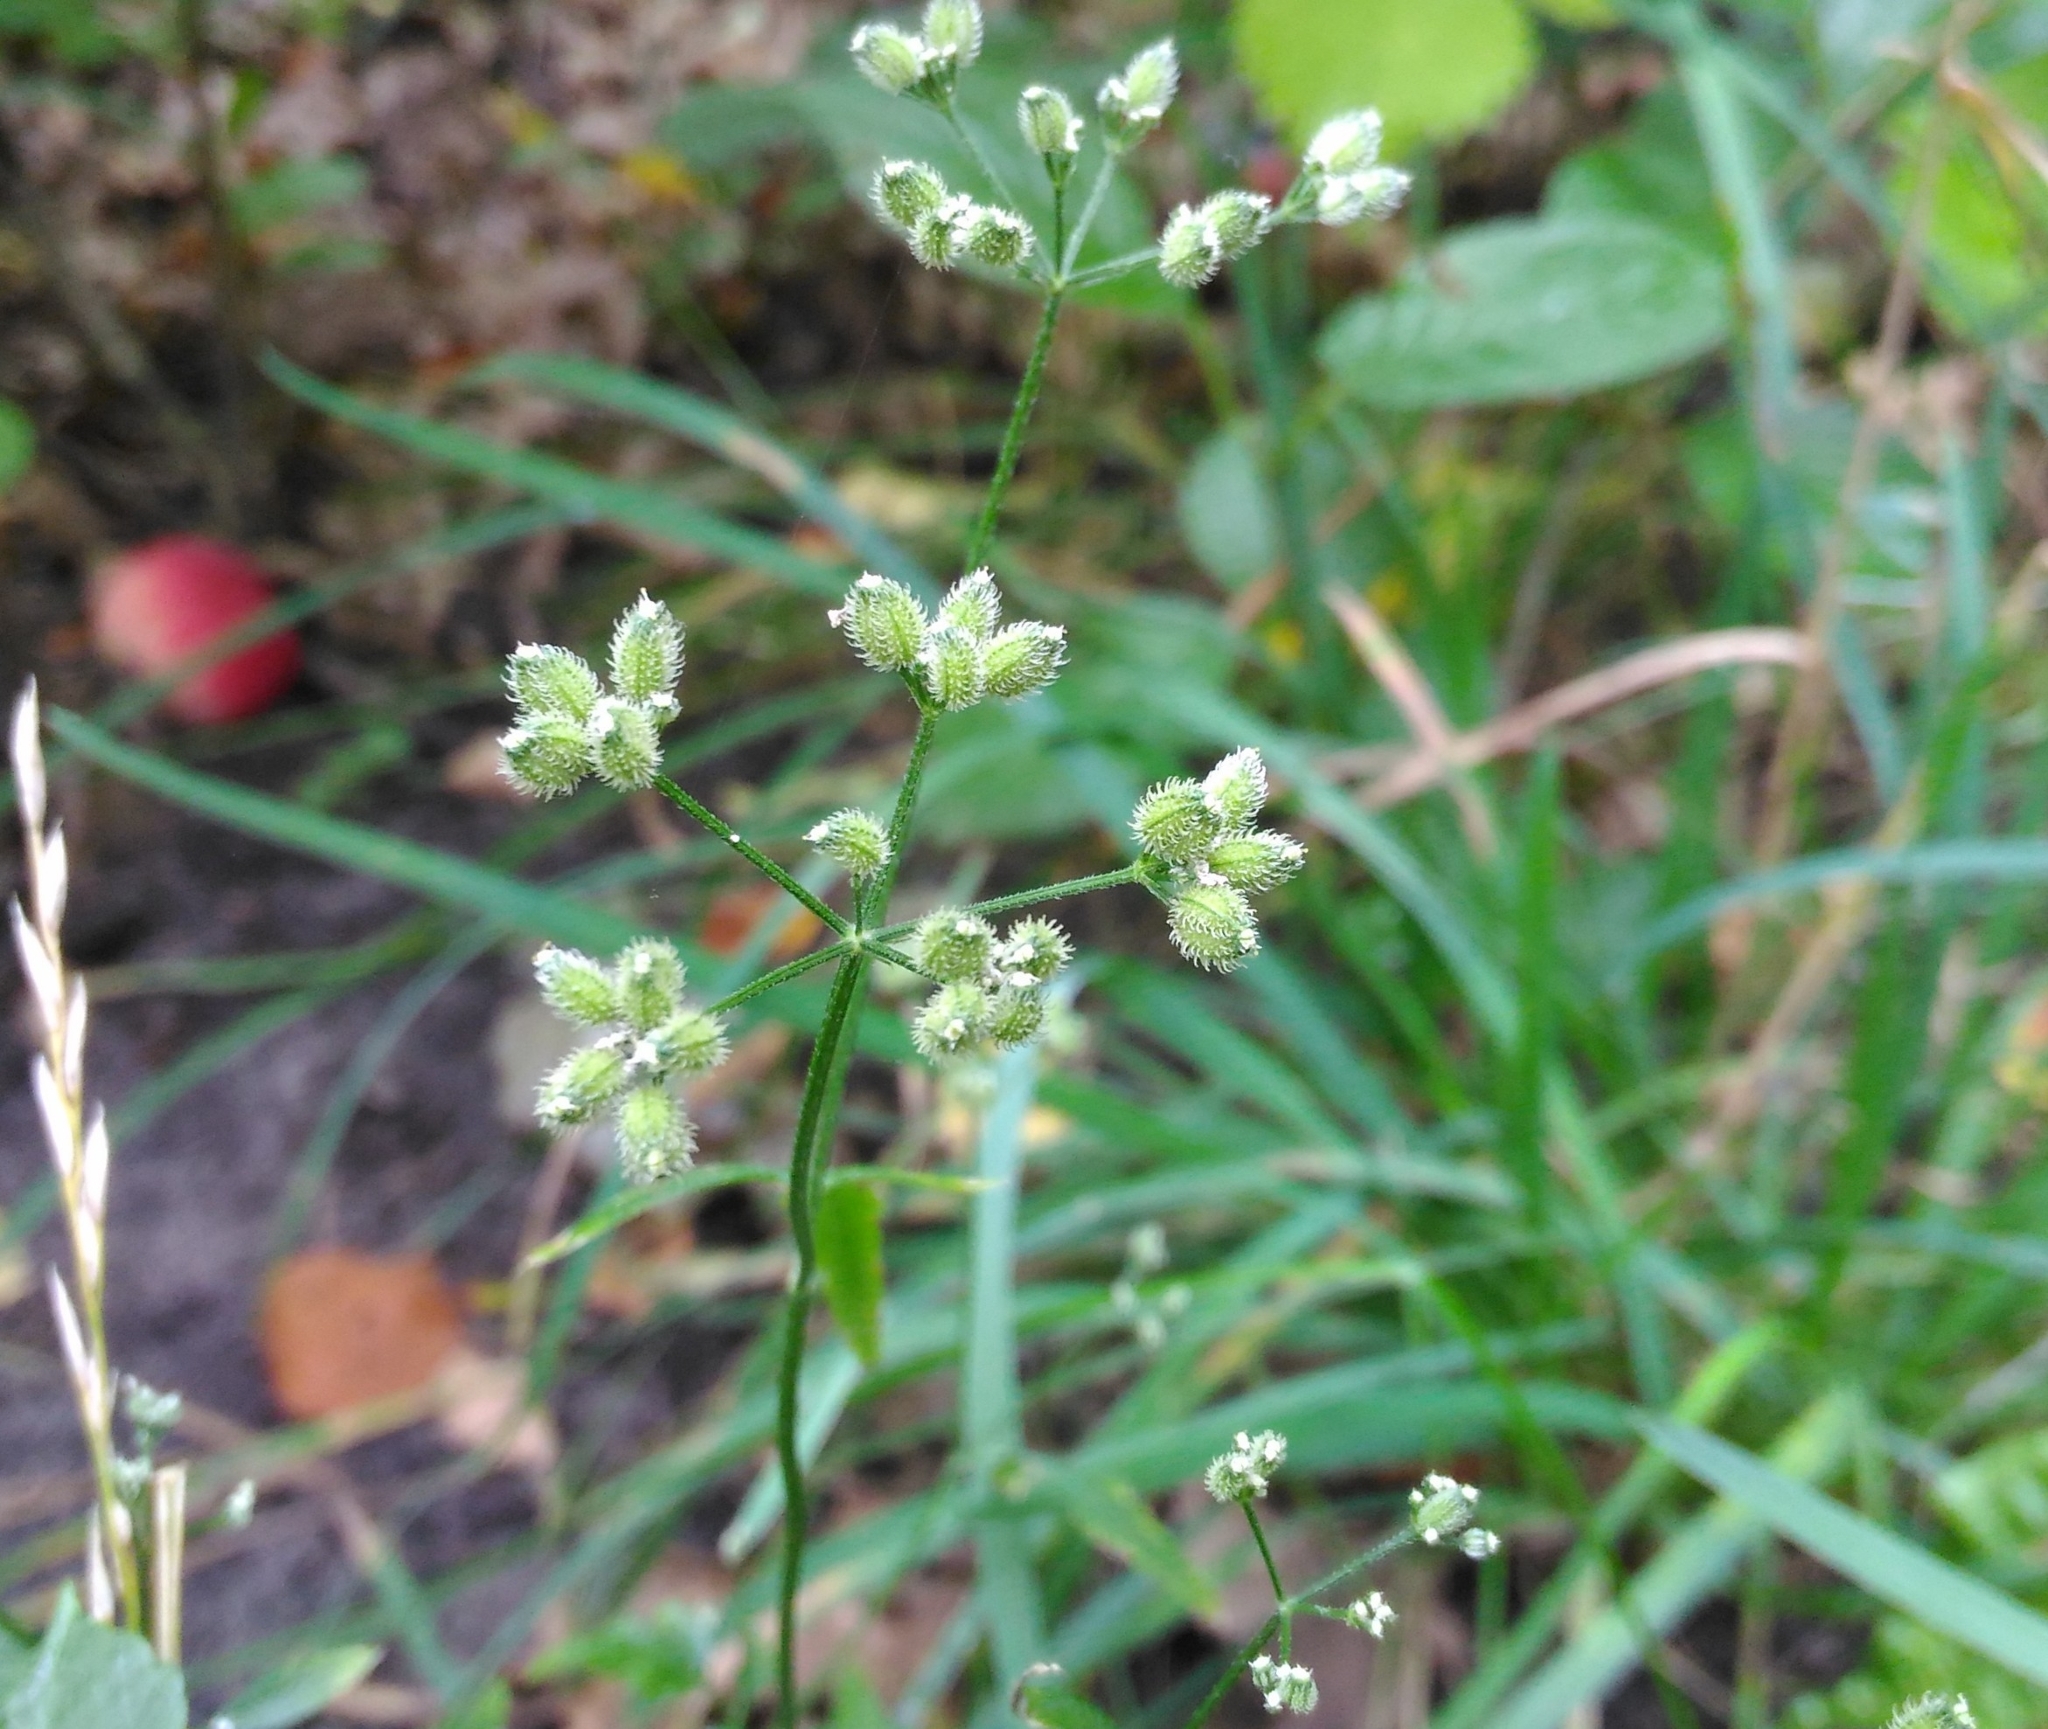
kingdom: Plantae
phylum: Tracheophyta
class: Magnoliopsida
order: Apiales
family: Apiaceae
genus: Torilis
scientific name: Torilis japonica
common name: Upright hedge-parsley
